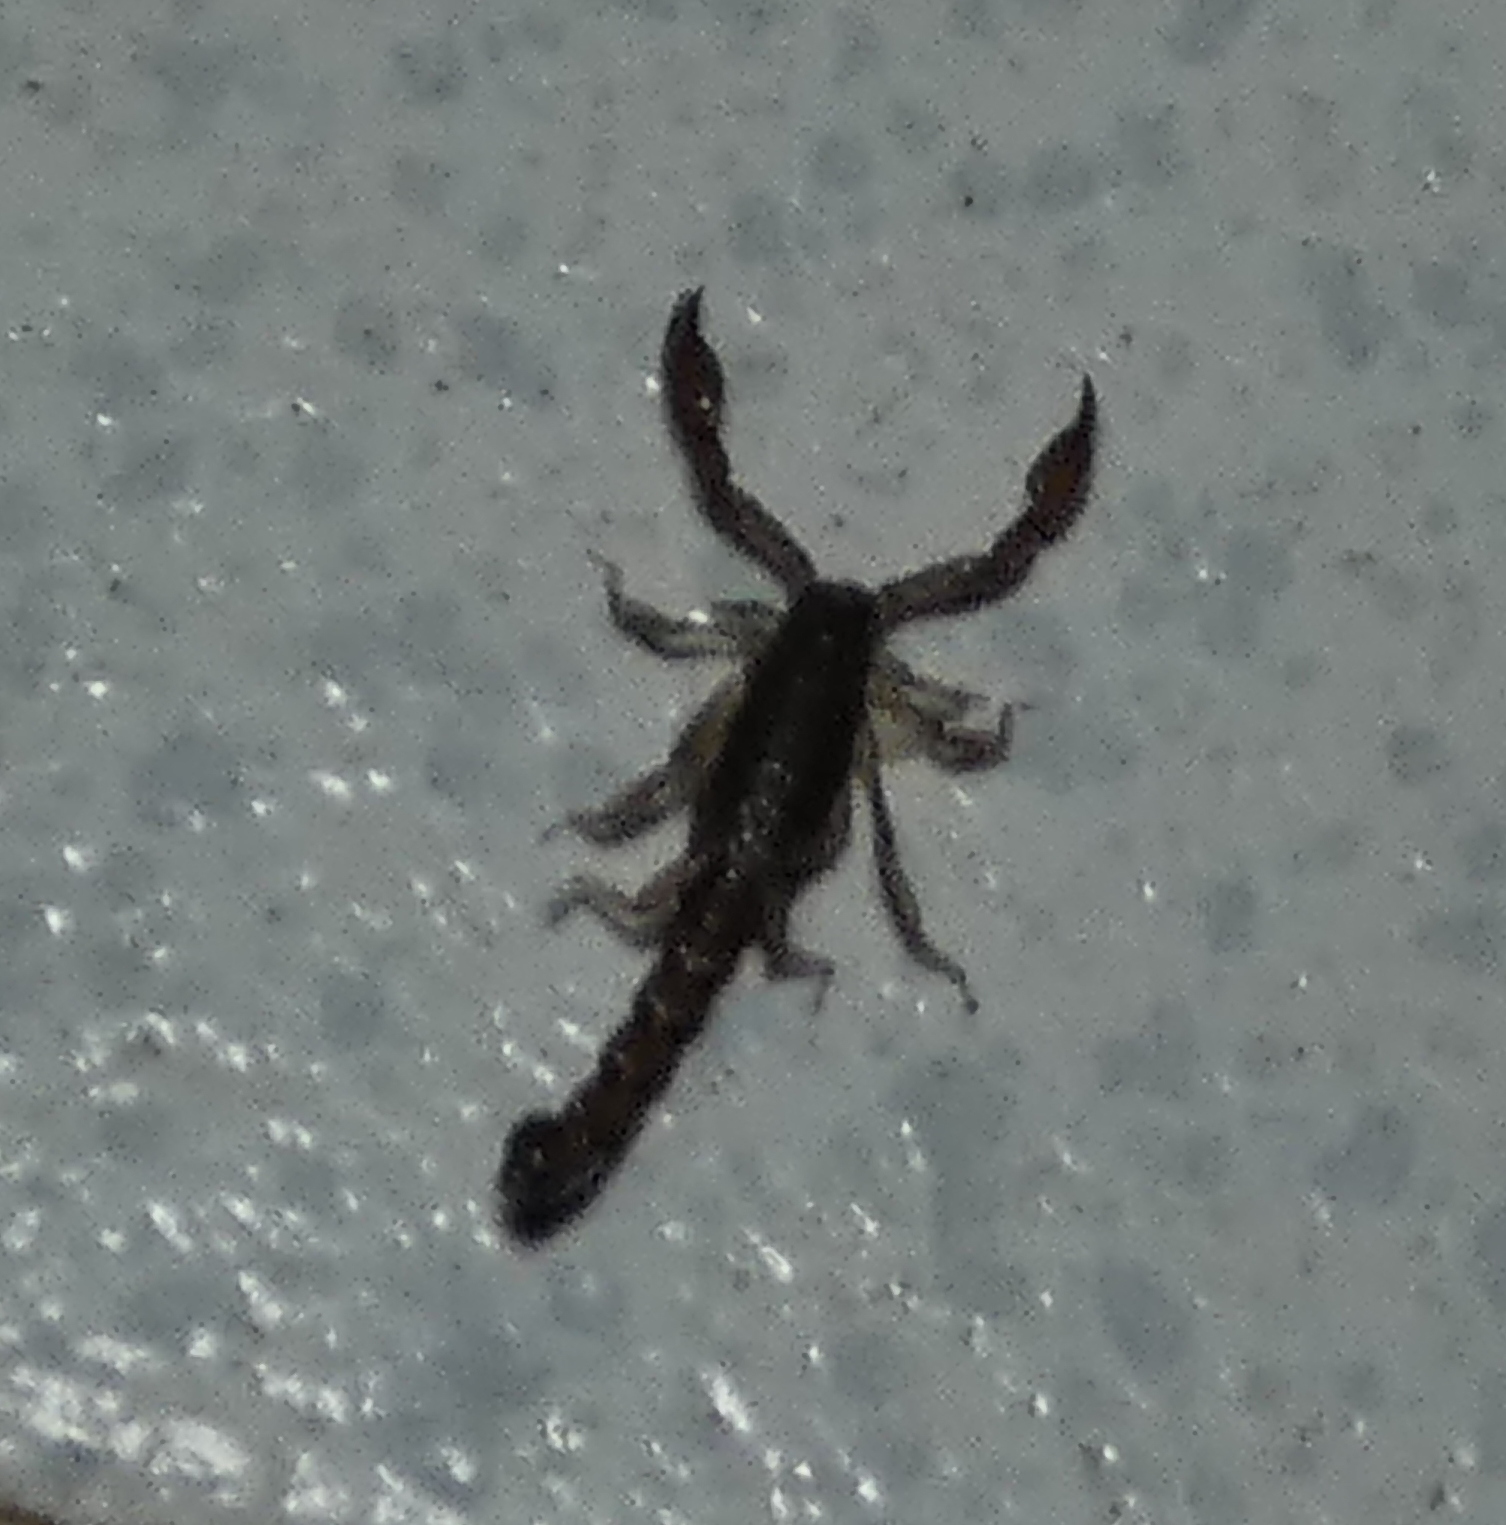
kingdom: Animalia
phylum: Arthropoda
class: Arachnida
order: Scorpiones
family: Bothriuridae
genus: Bothriurus
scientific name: Bothriurus asper
